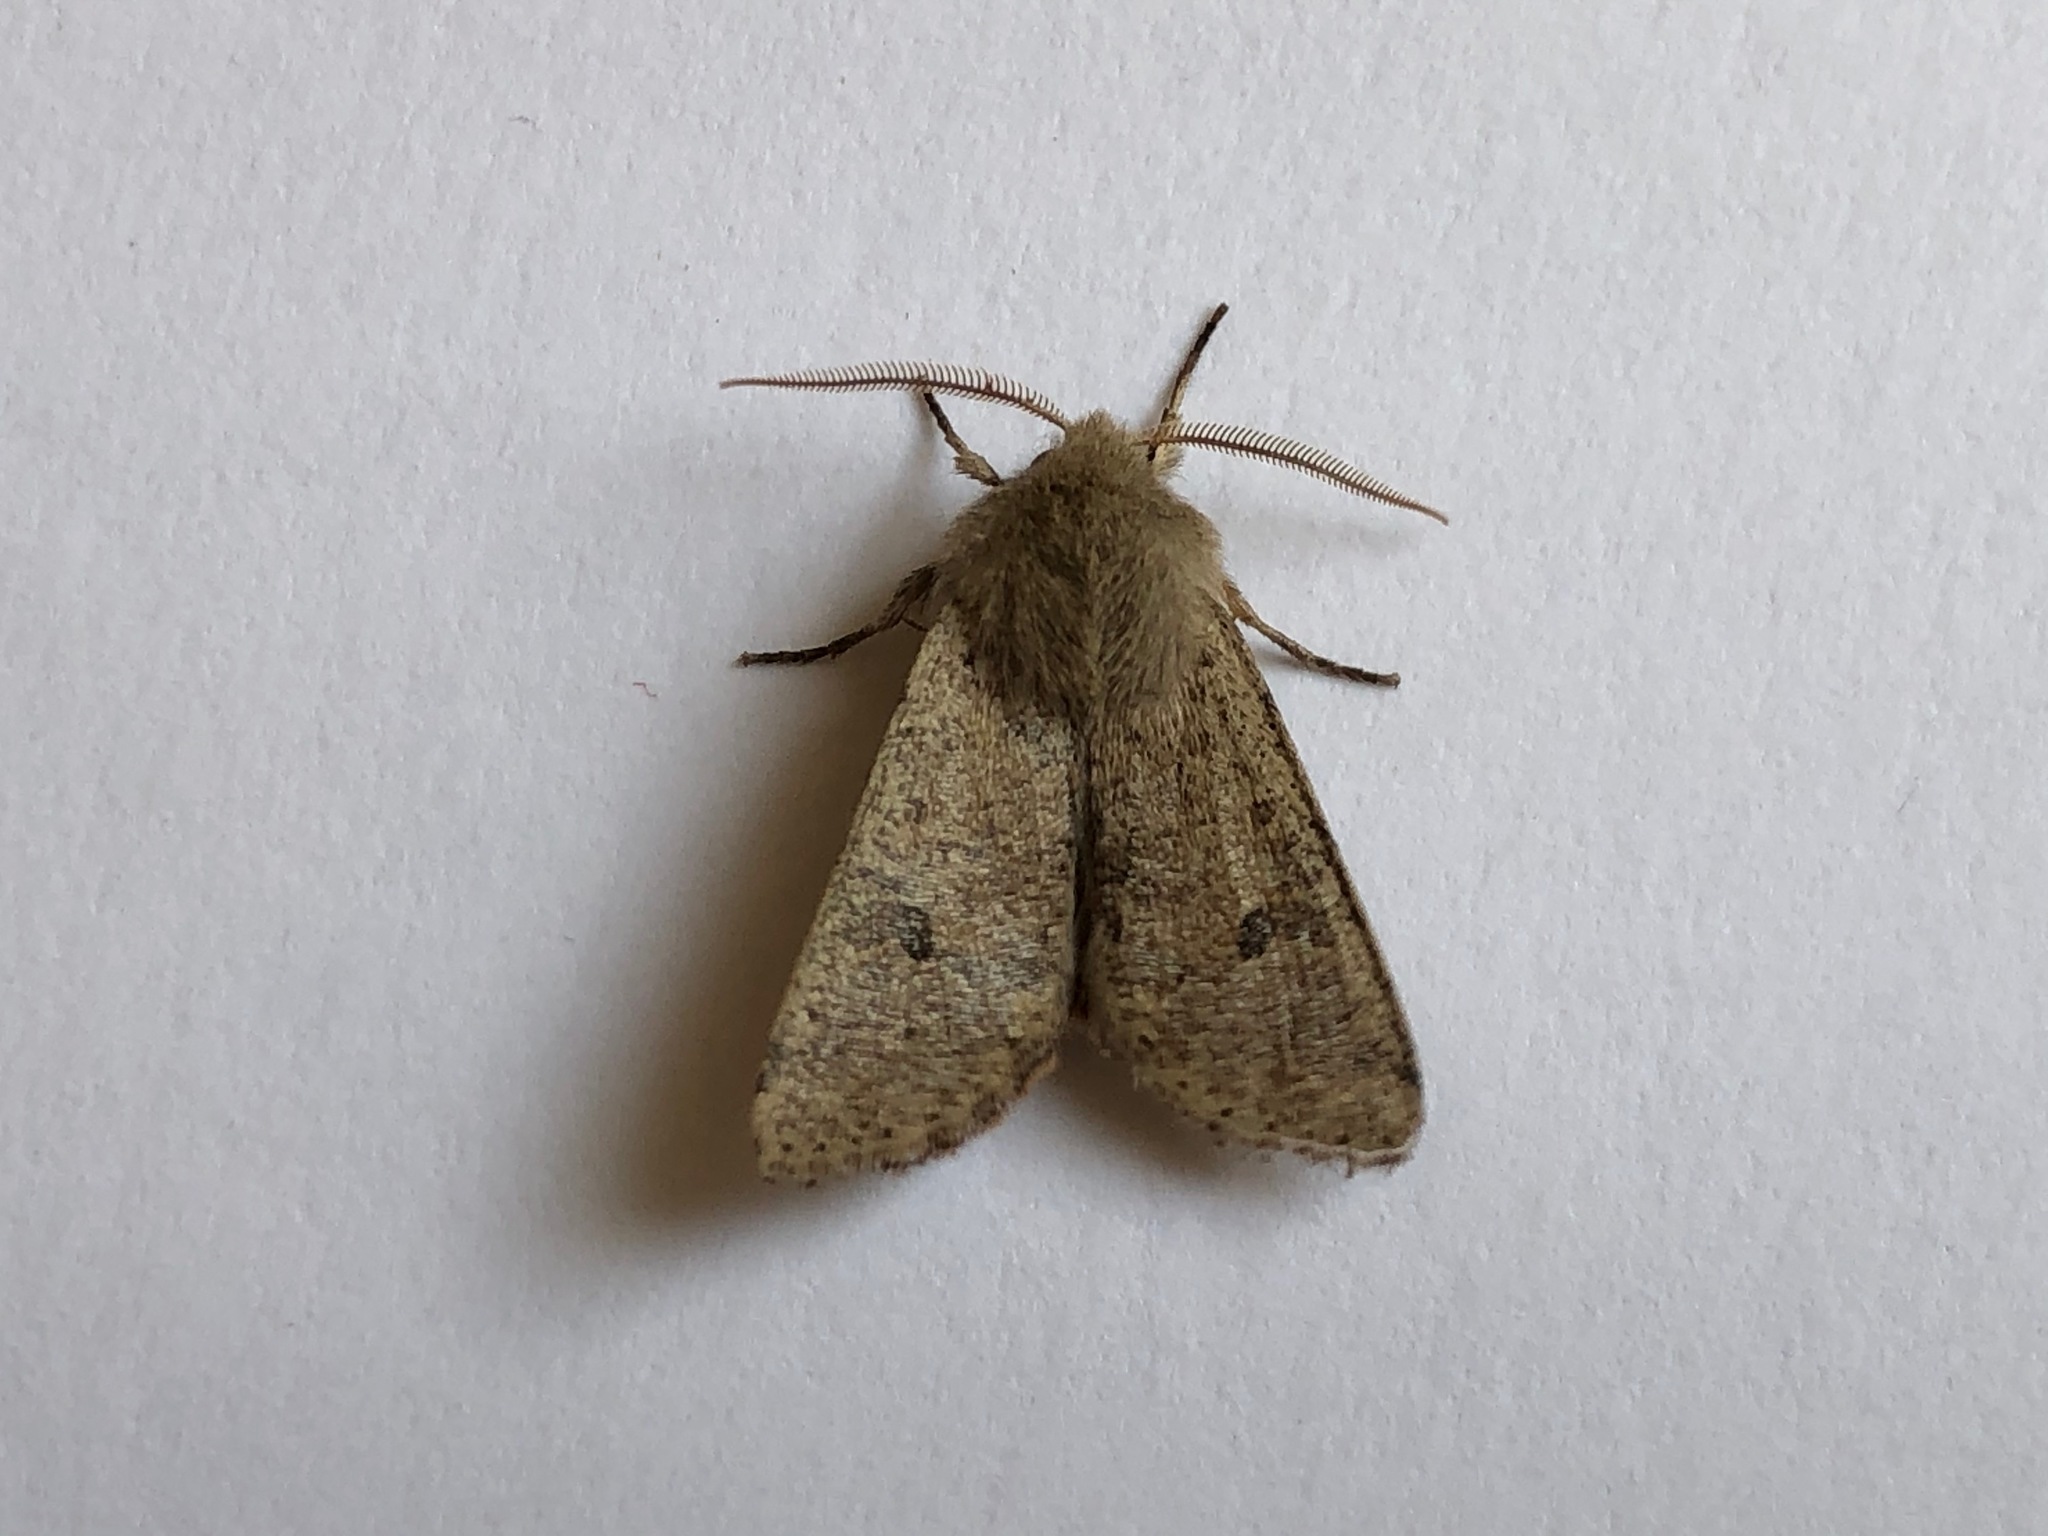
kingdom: Animalia
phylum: Arthropoda
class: Insecta
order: Lepidoptera
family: Noctuidae
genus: Orthosia
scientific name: Orthosia cruda
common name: Small quaker
